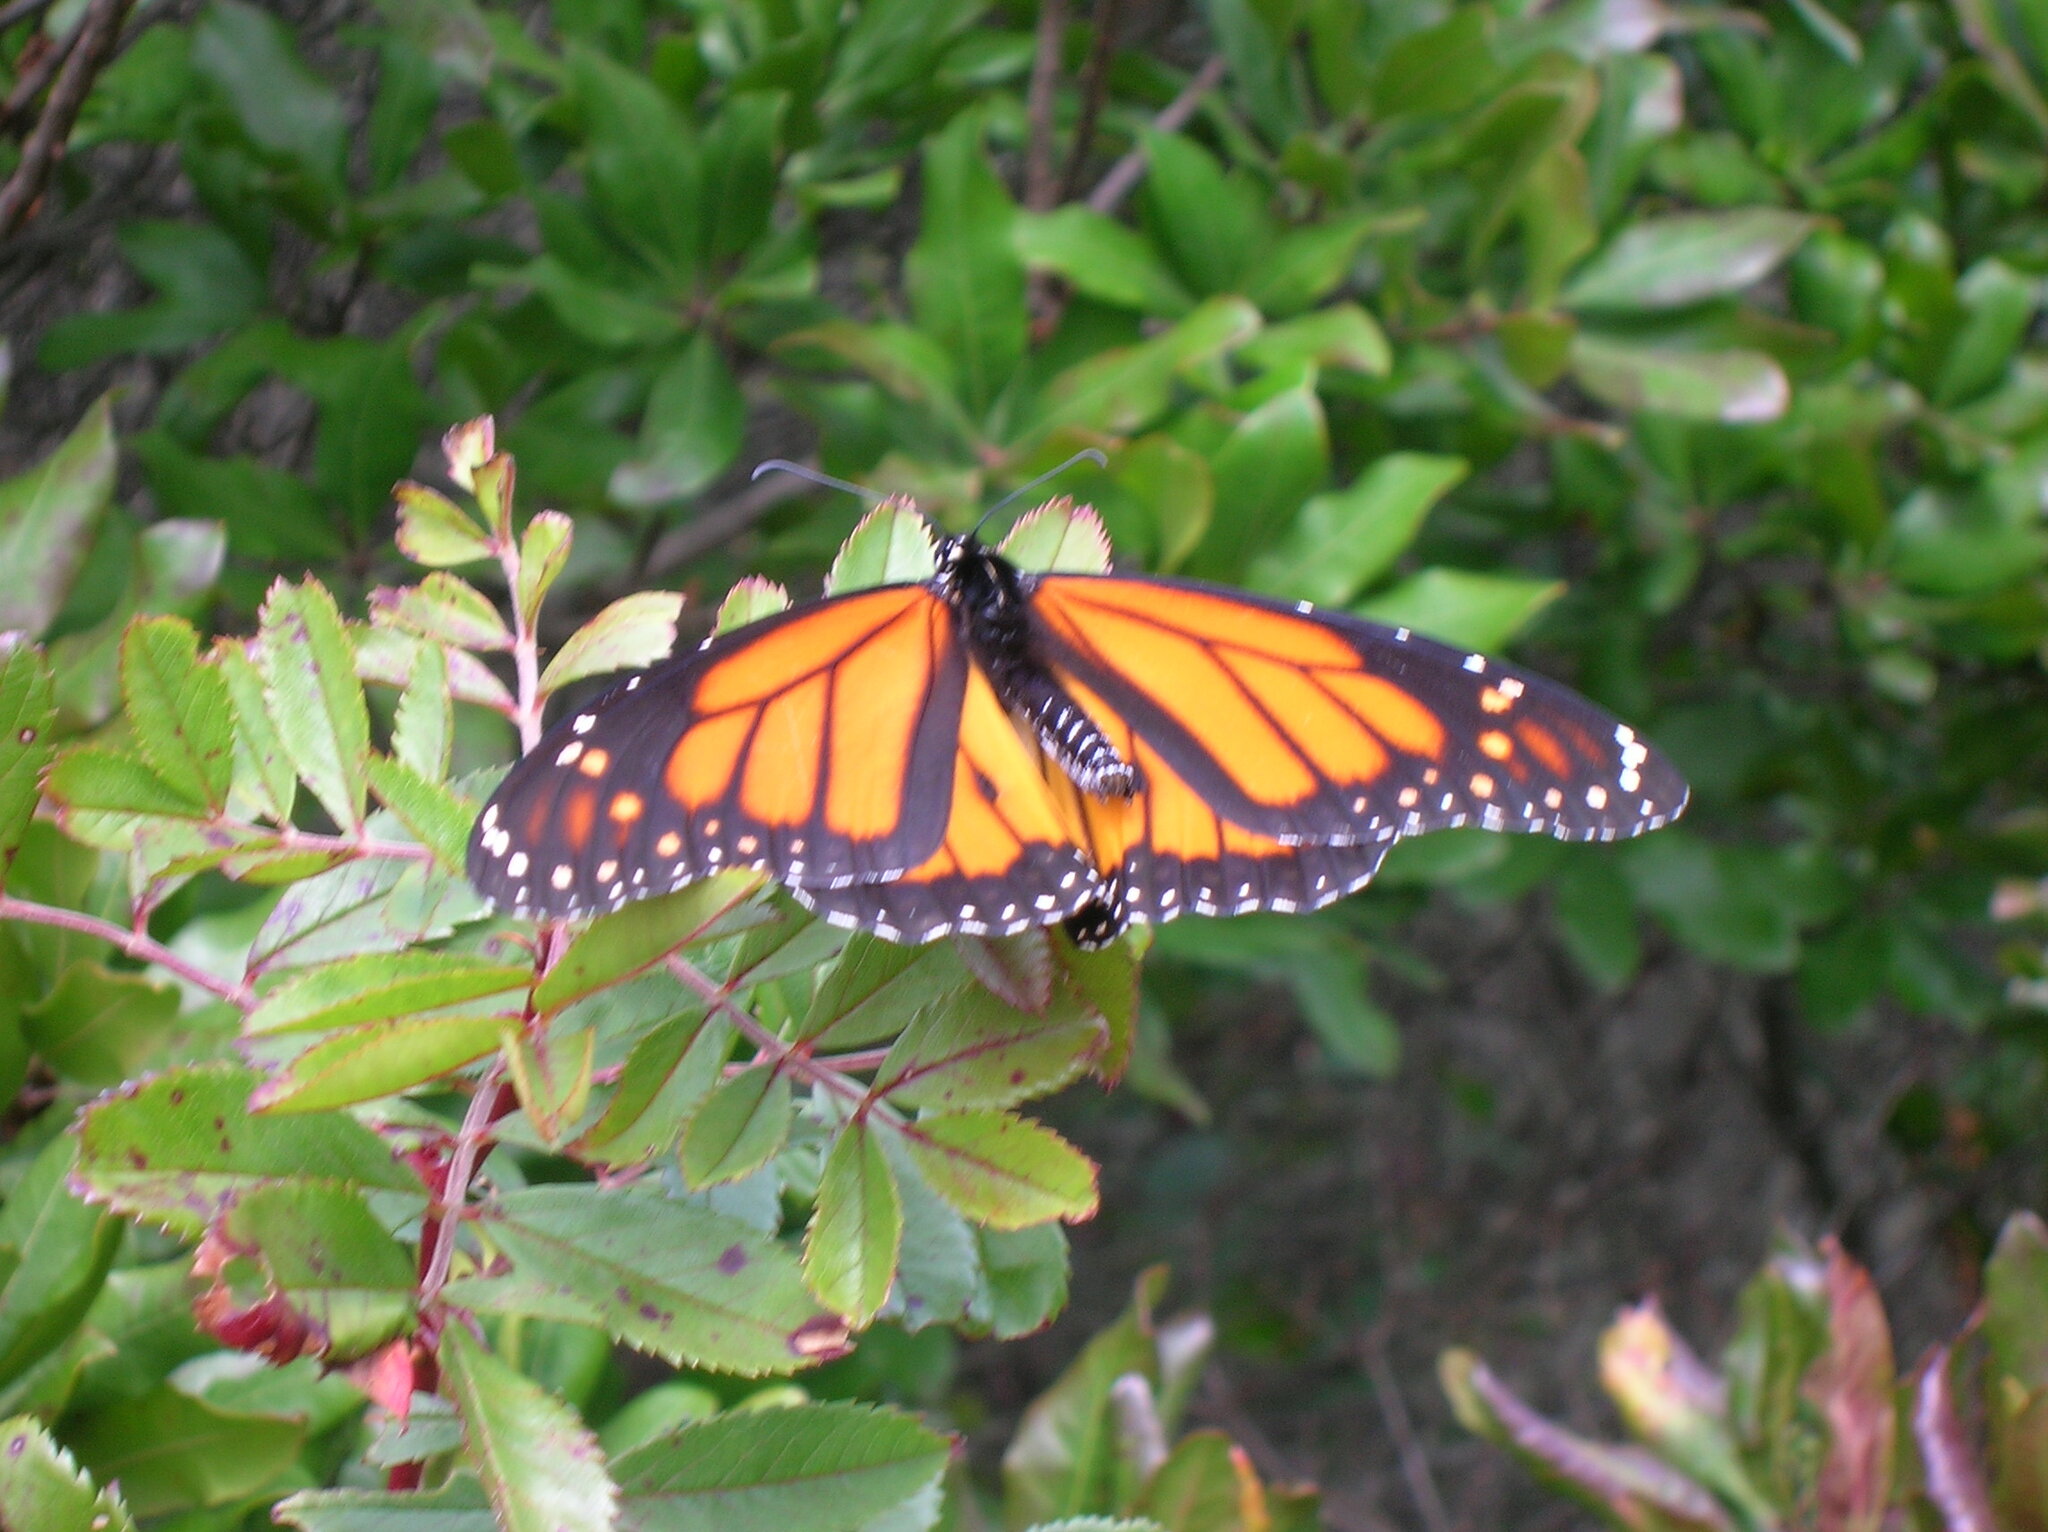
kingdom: Animalia
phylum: Arthropoda
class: Insecta
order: Lepidoptera
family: Nymphalidae
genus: Danaus
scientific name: Danaus plexippus
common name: Monarch
